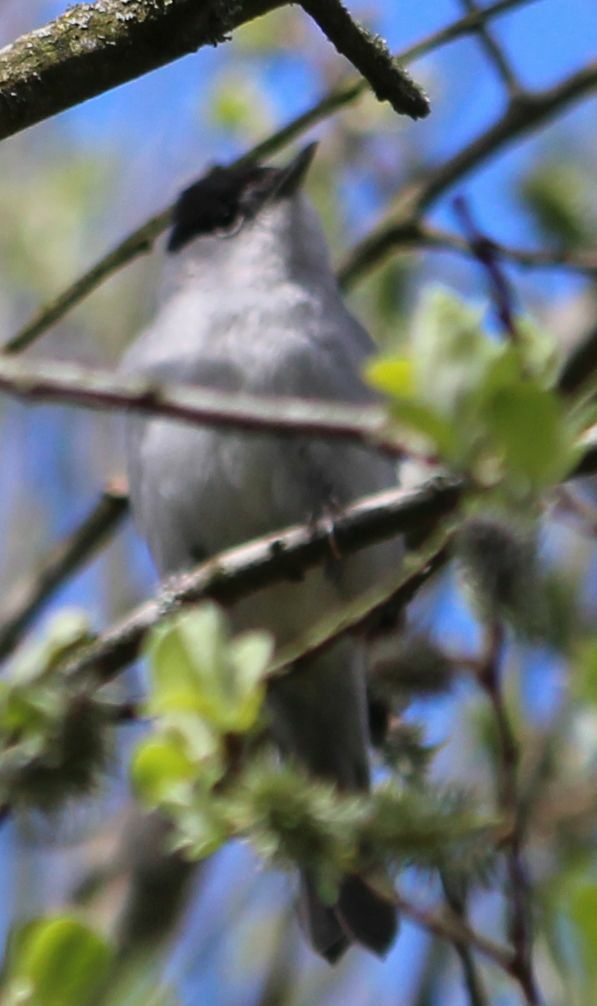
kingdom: Animalia
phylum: Chordata
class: Aves
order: Passeriformes
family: Sylviidae
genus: Sylvia
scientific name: Sylvia atricapilla
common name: Eurasian blackcap
